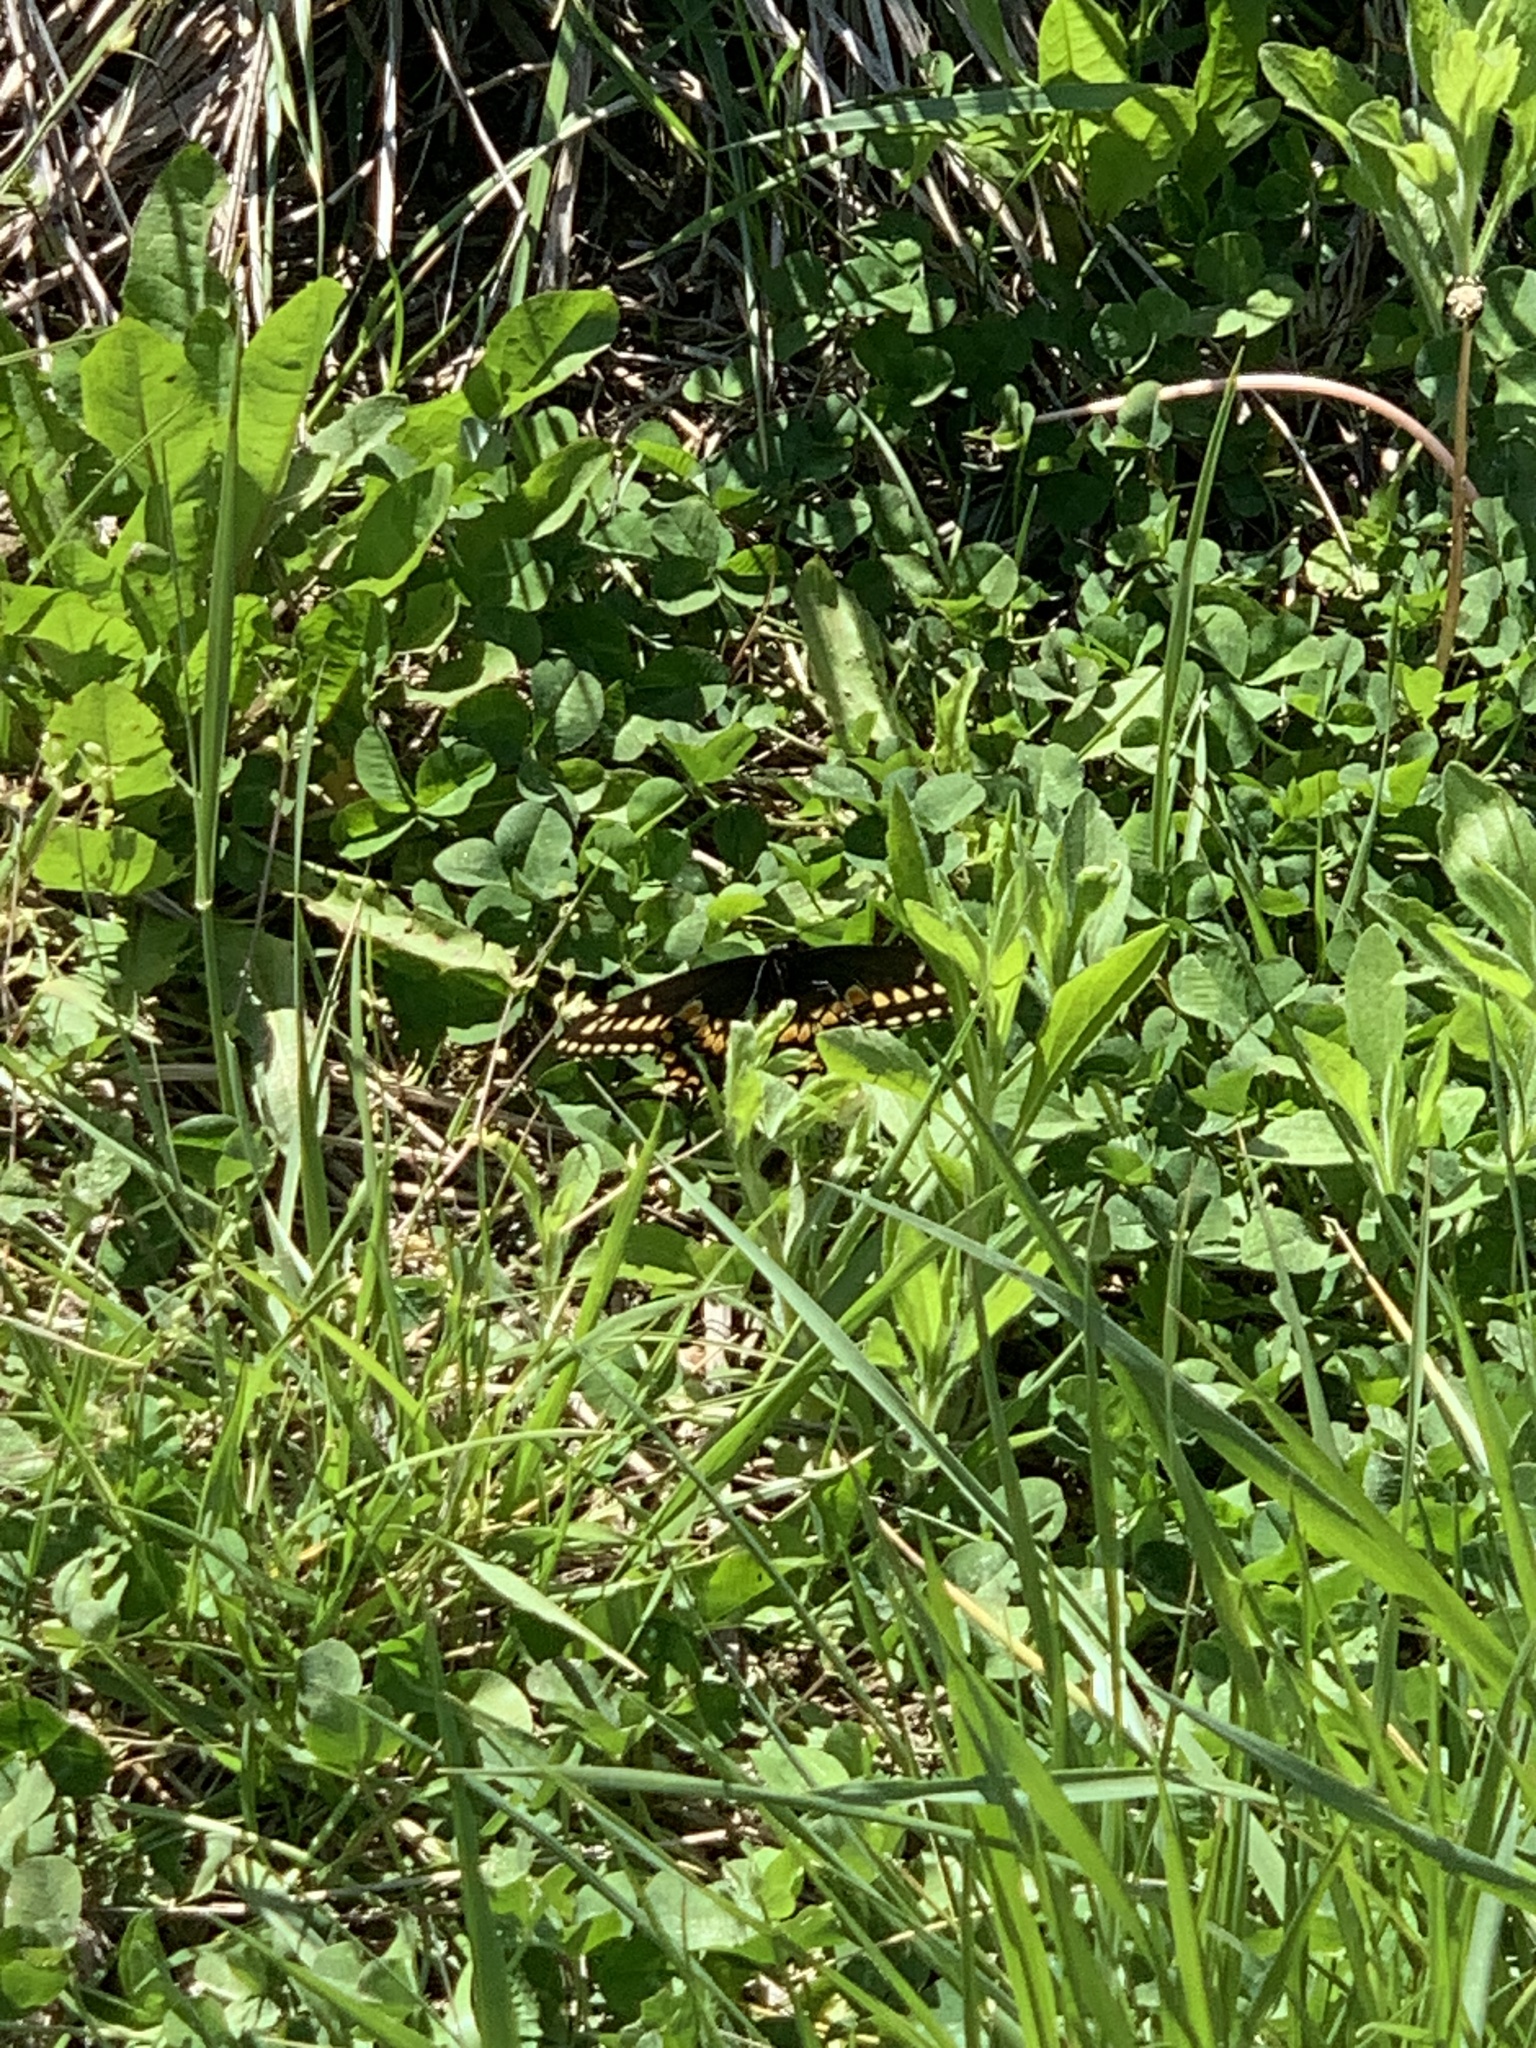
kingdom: Animalia
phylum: Arthropoda
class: Insecta
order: Lepidoptera
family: Papilionidae
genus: Papilio
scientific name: Papilio polyxenes
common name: Black swallowtail
